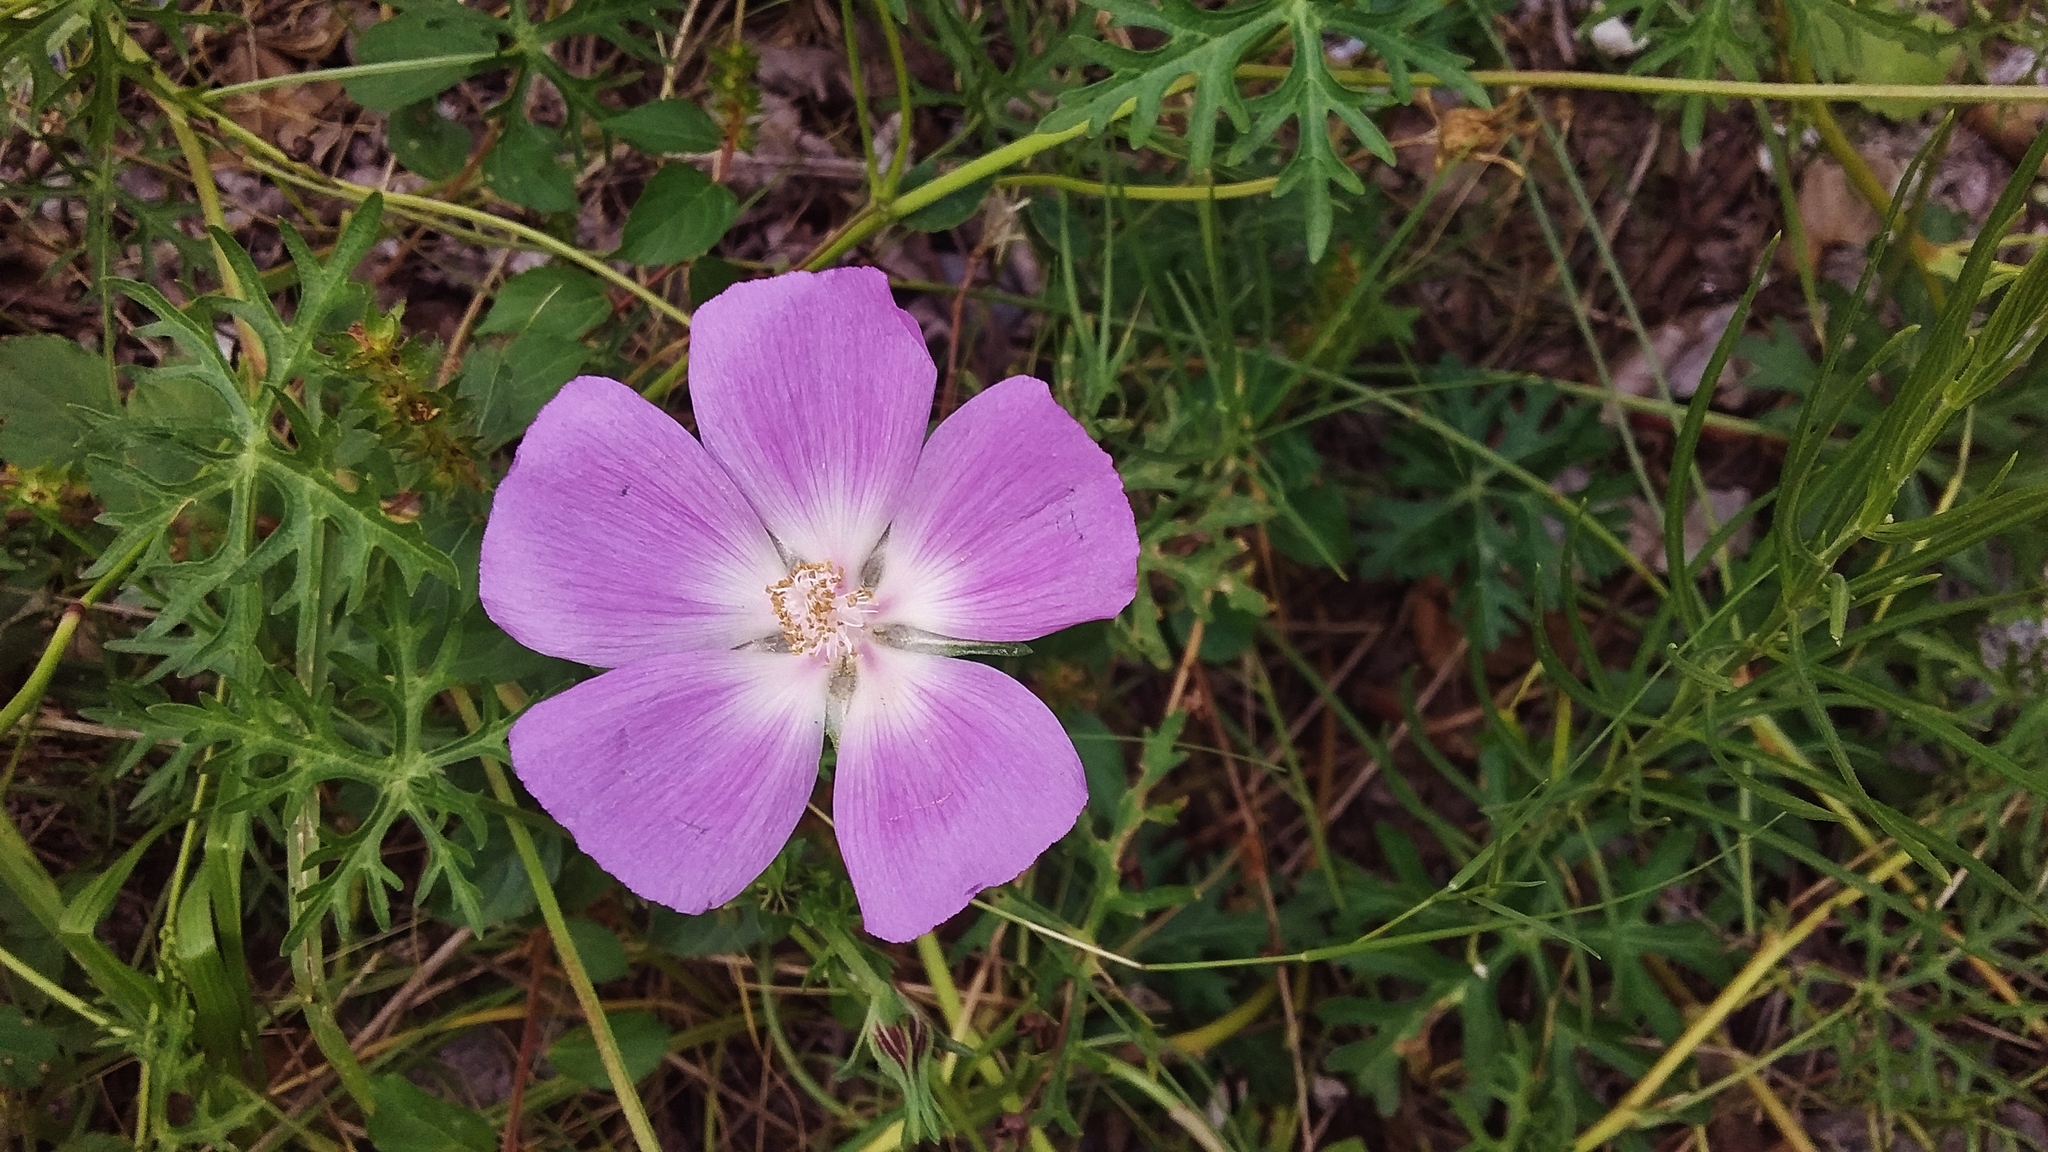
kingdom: Plantae
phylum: Tracheophyta
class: Magnoliopsida
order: Malvales
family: Malvaceae
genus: Callirhoe
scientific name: Callirhoe involucrata
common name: Purple poppy-mallow
